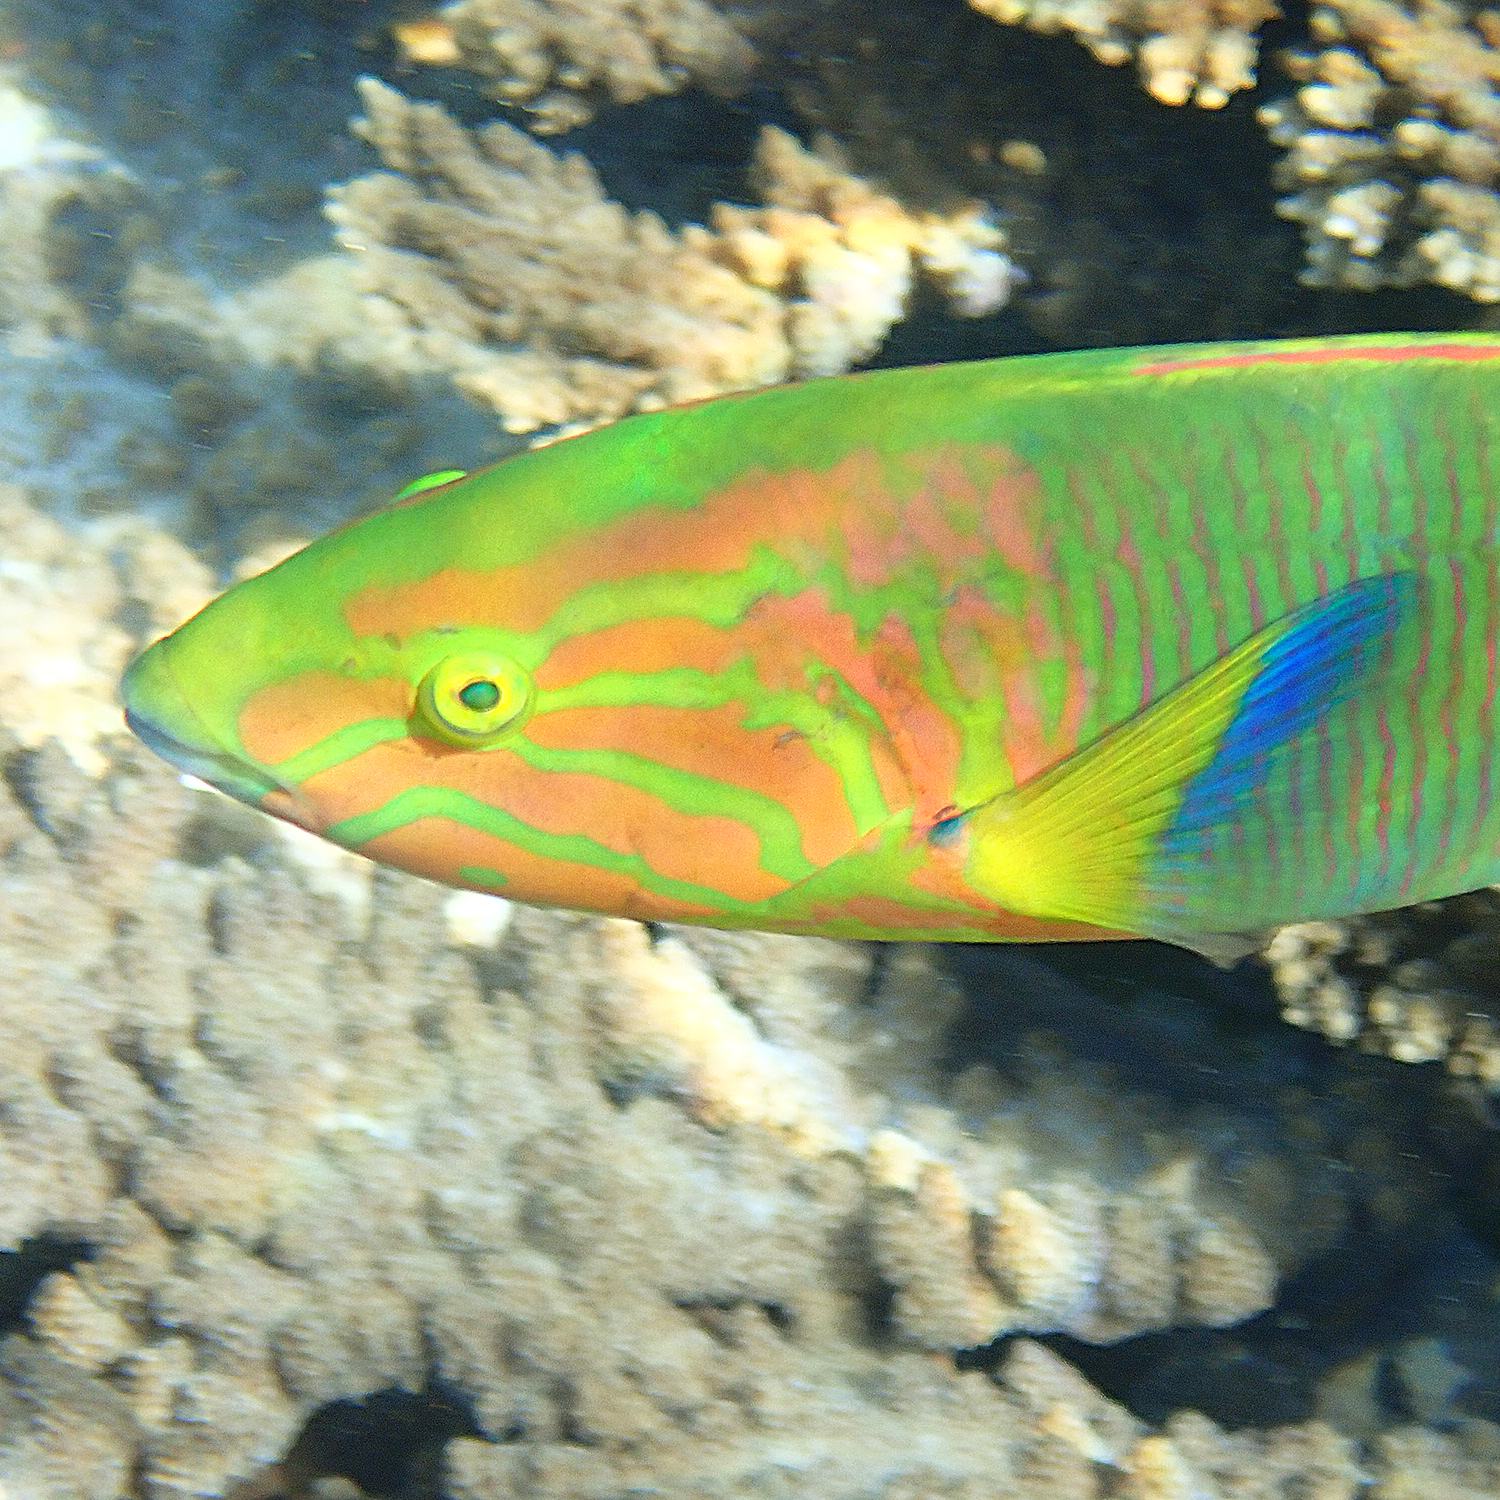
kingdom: Animalia
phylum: Chordata
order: Perciformes
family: Labridae
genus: Thalassoma
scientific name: Thalassoma lutescens
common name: Green moon wrasse
